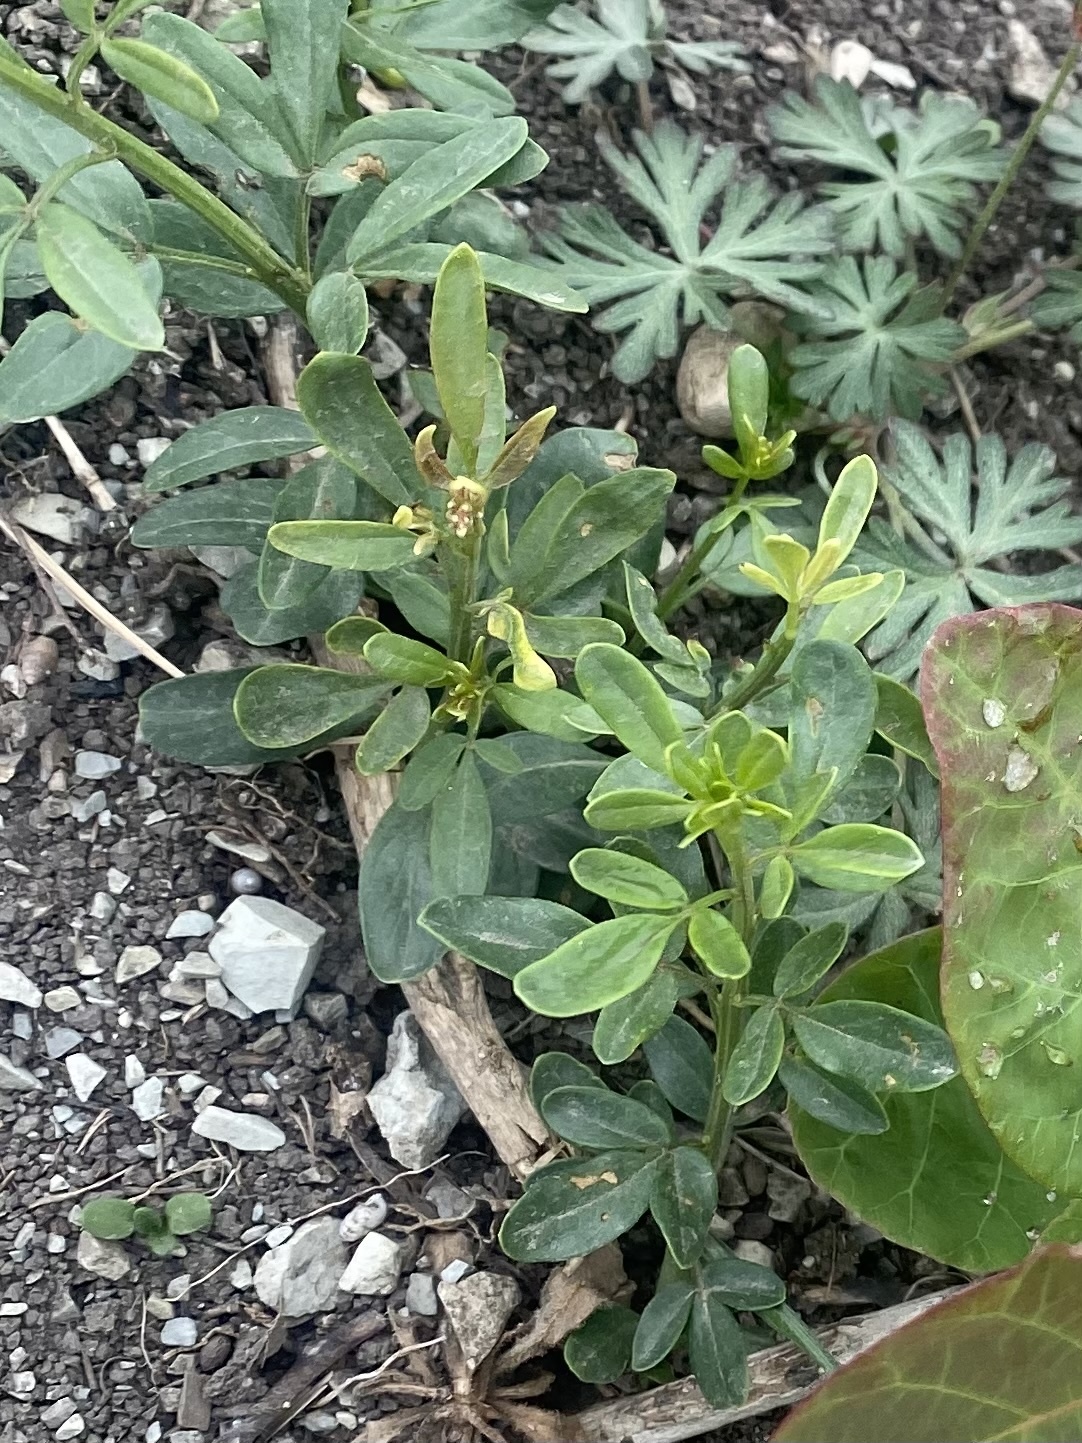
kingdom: Plantae
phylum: Tracheophyta
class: Magnoliopsida
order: Lamiales
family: Oleaceae
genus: Chrysojasminum
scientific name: Chrysojasminum fruticans
